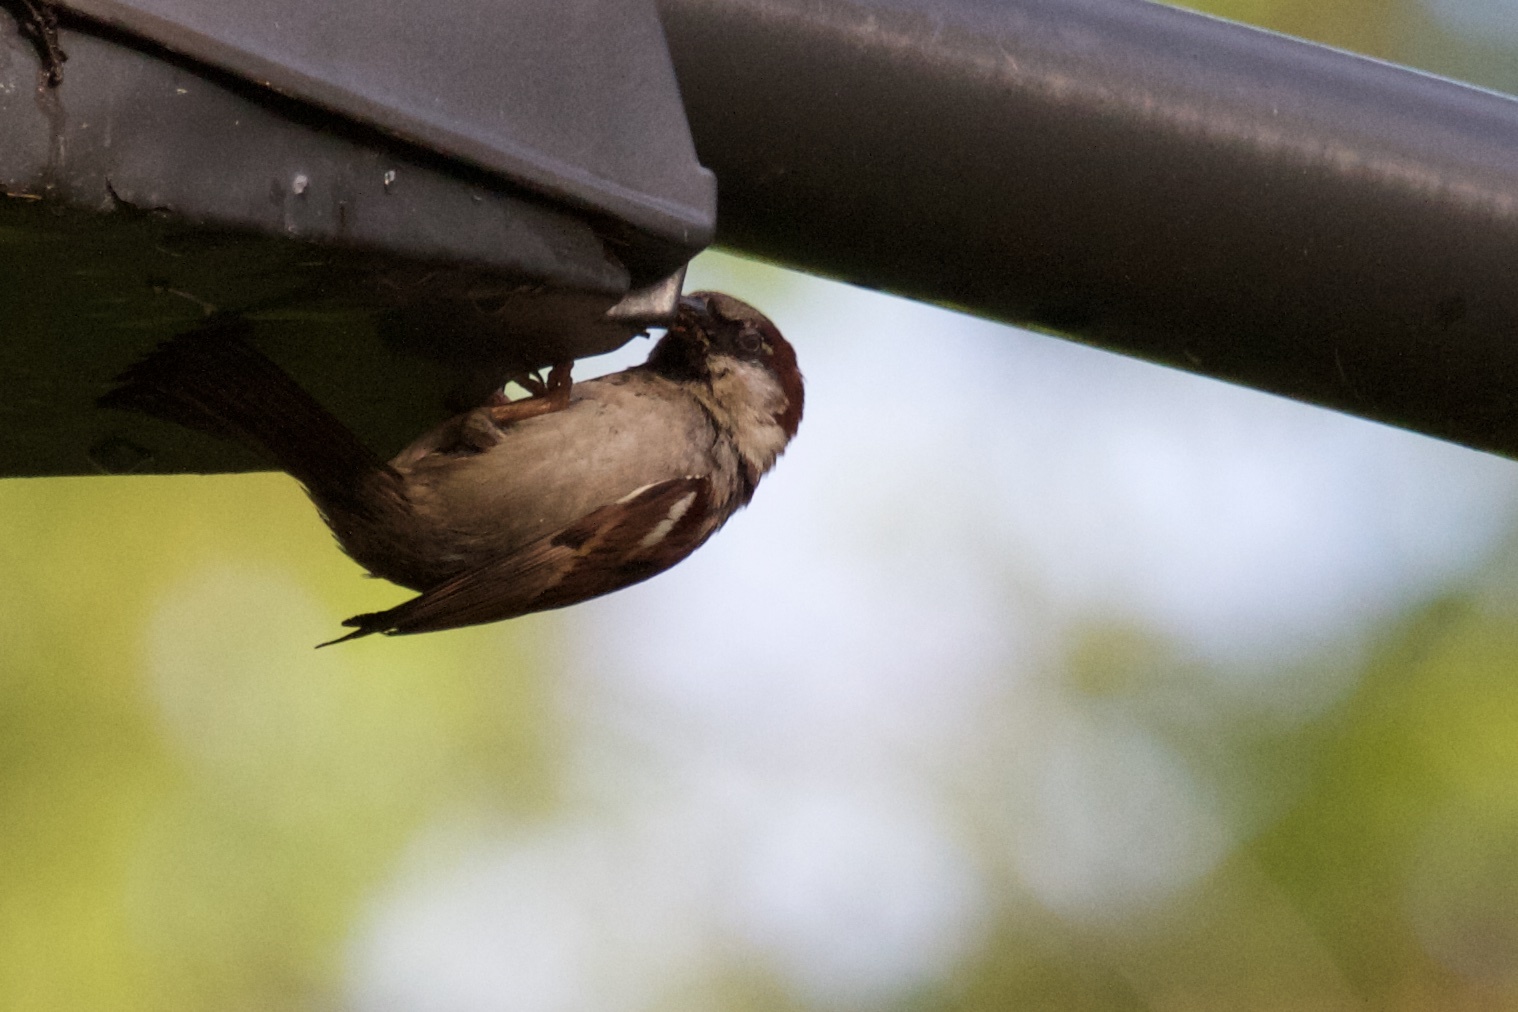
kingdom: Animalia
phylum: Chordata
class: Aves
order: Passeriformes
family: Passeridae
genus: Passer
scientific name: Passer domesticus
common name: House sparrow
